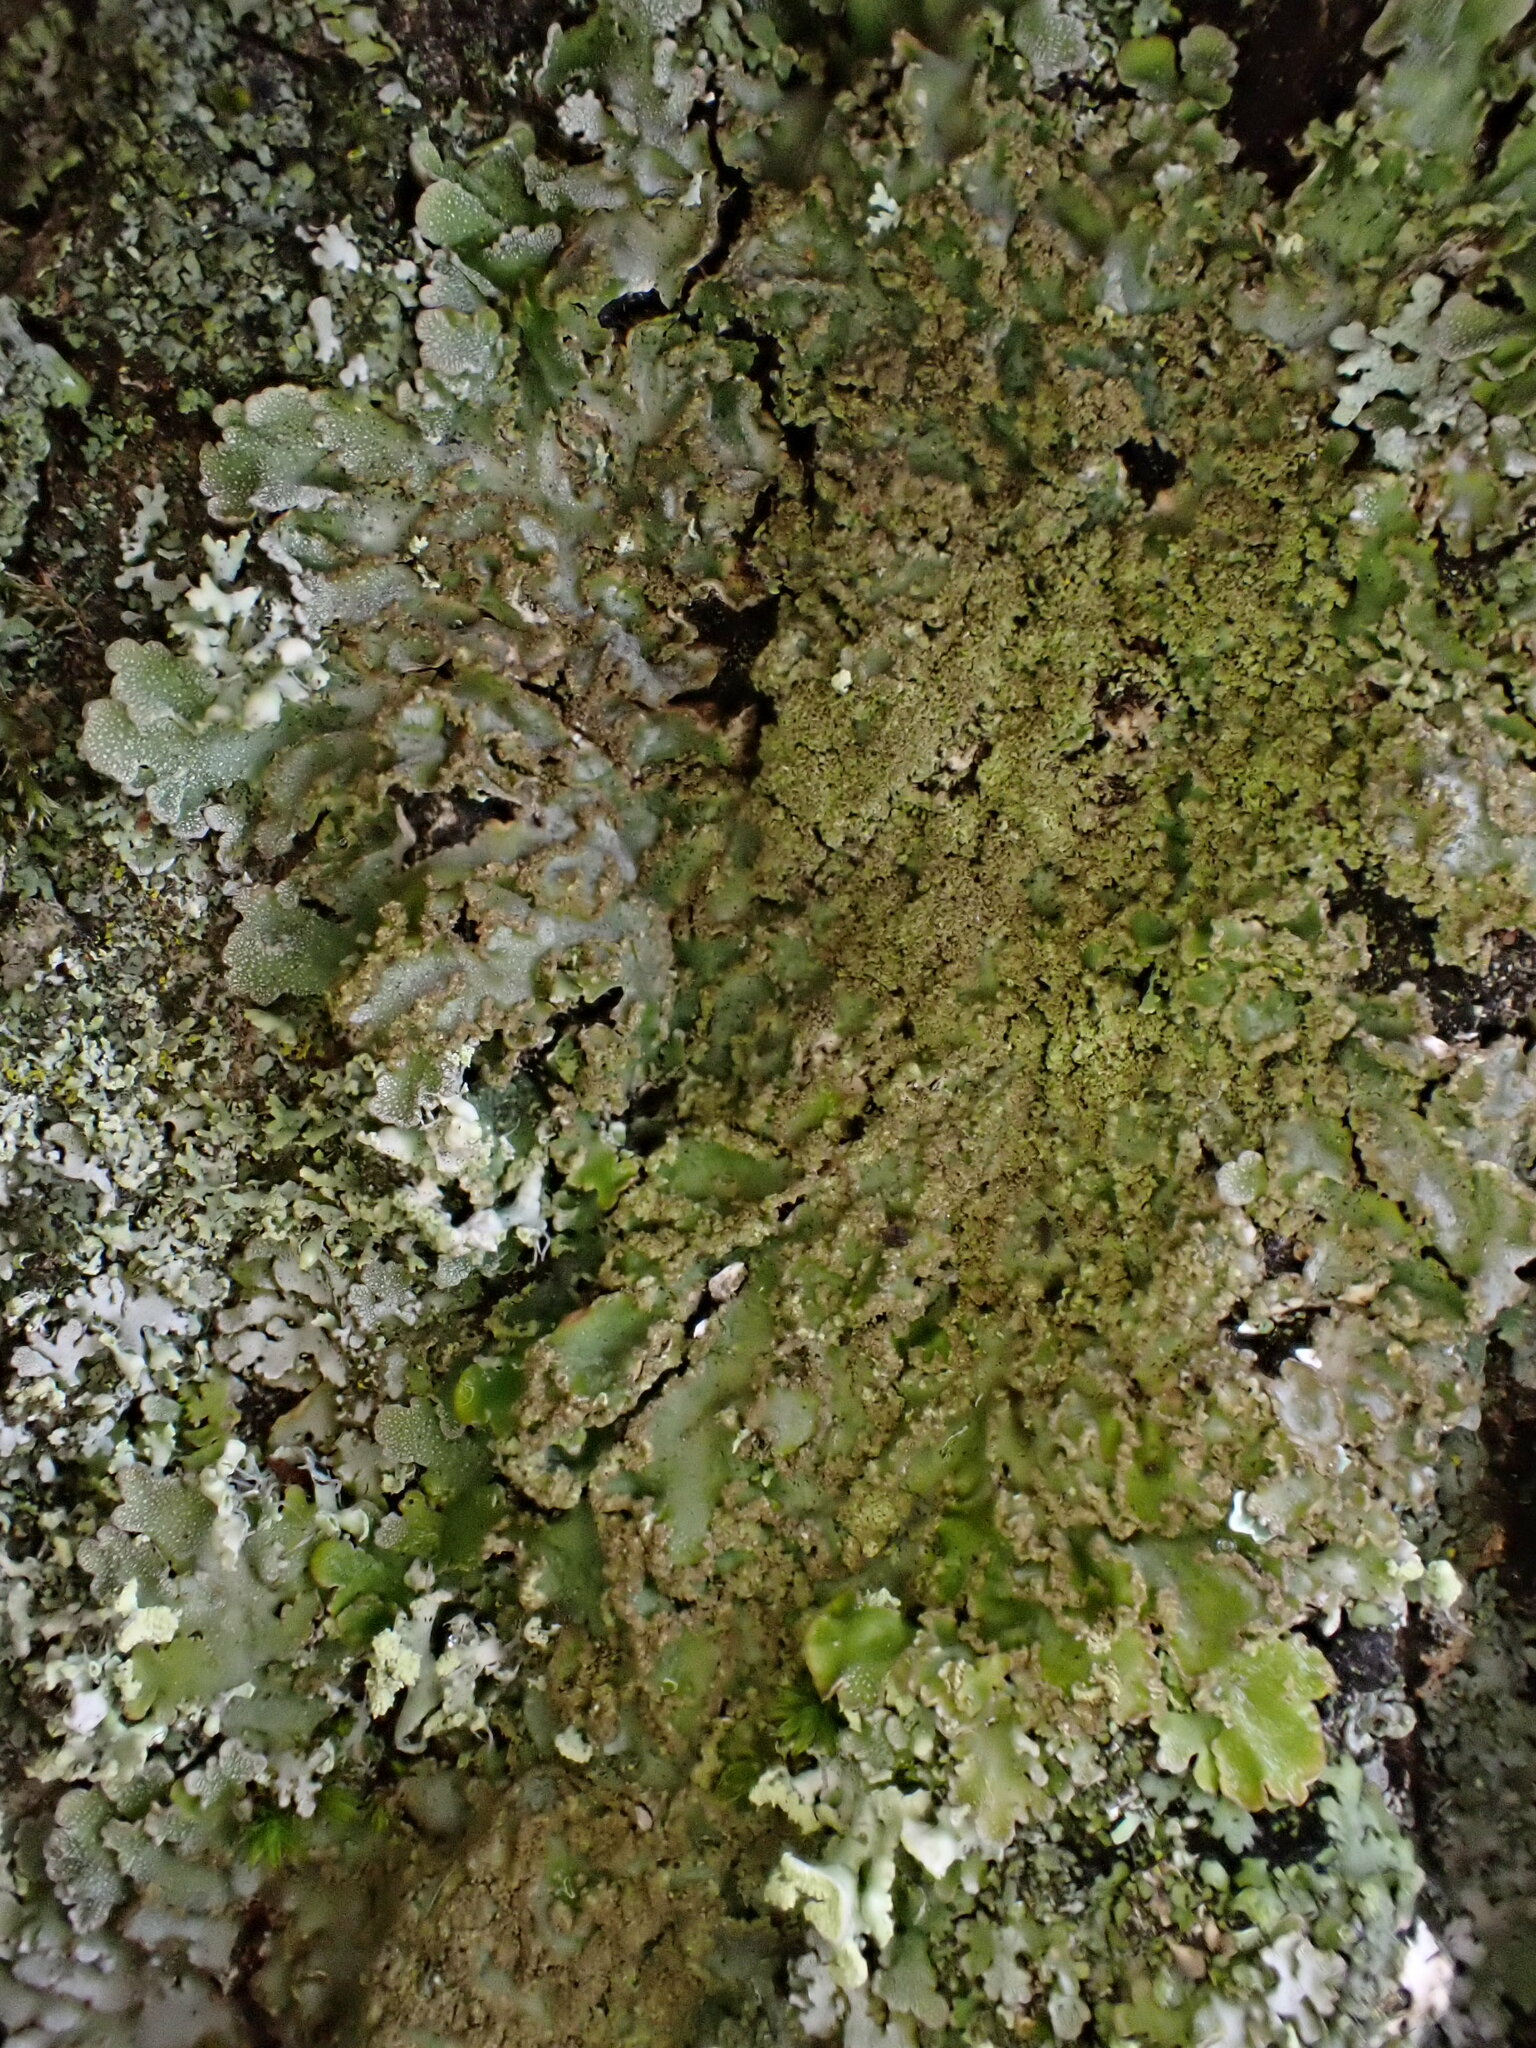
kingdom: Fungi
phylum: Ascomycota
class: Lecanoromycetes
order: Caliciales
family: Physciaceae
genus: Poeltonia
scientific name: Poeltonia grisea
